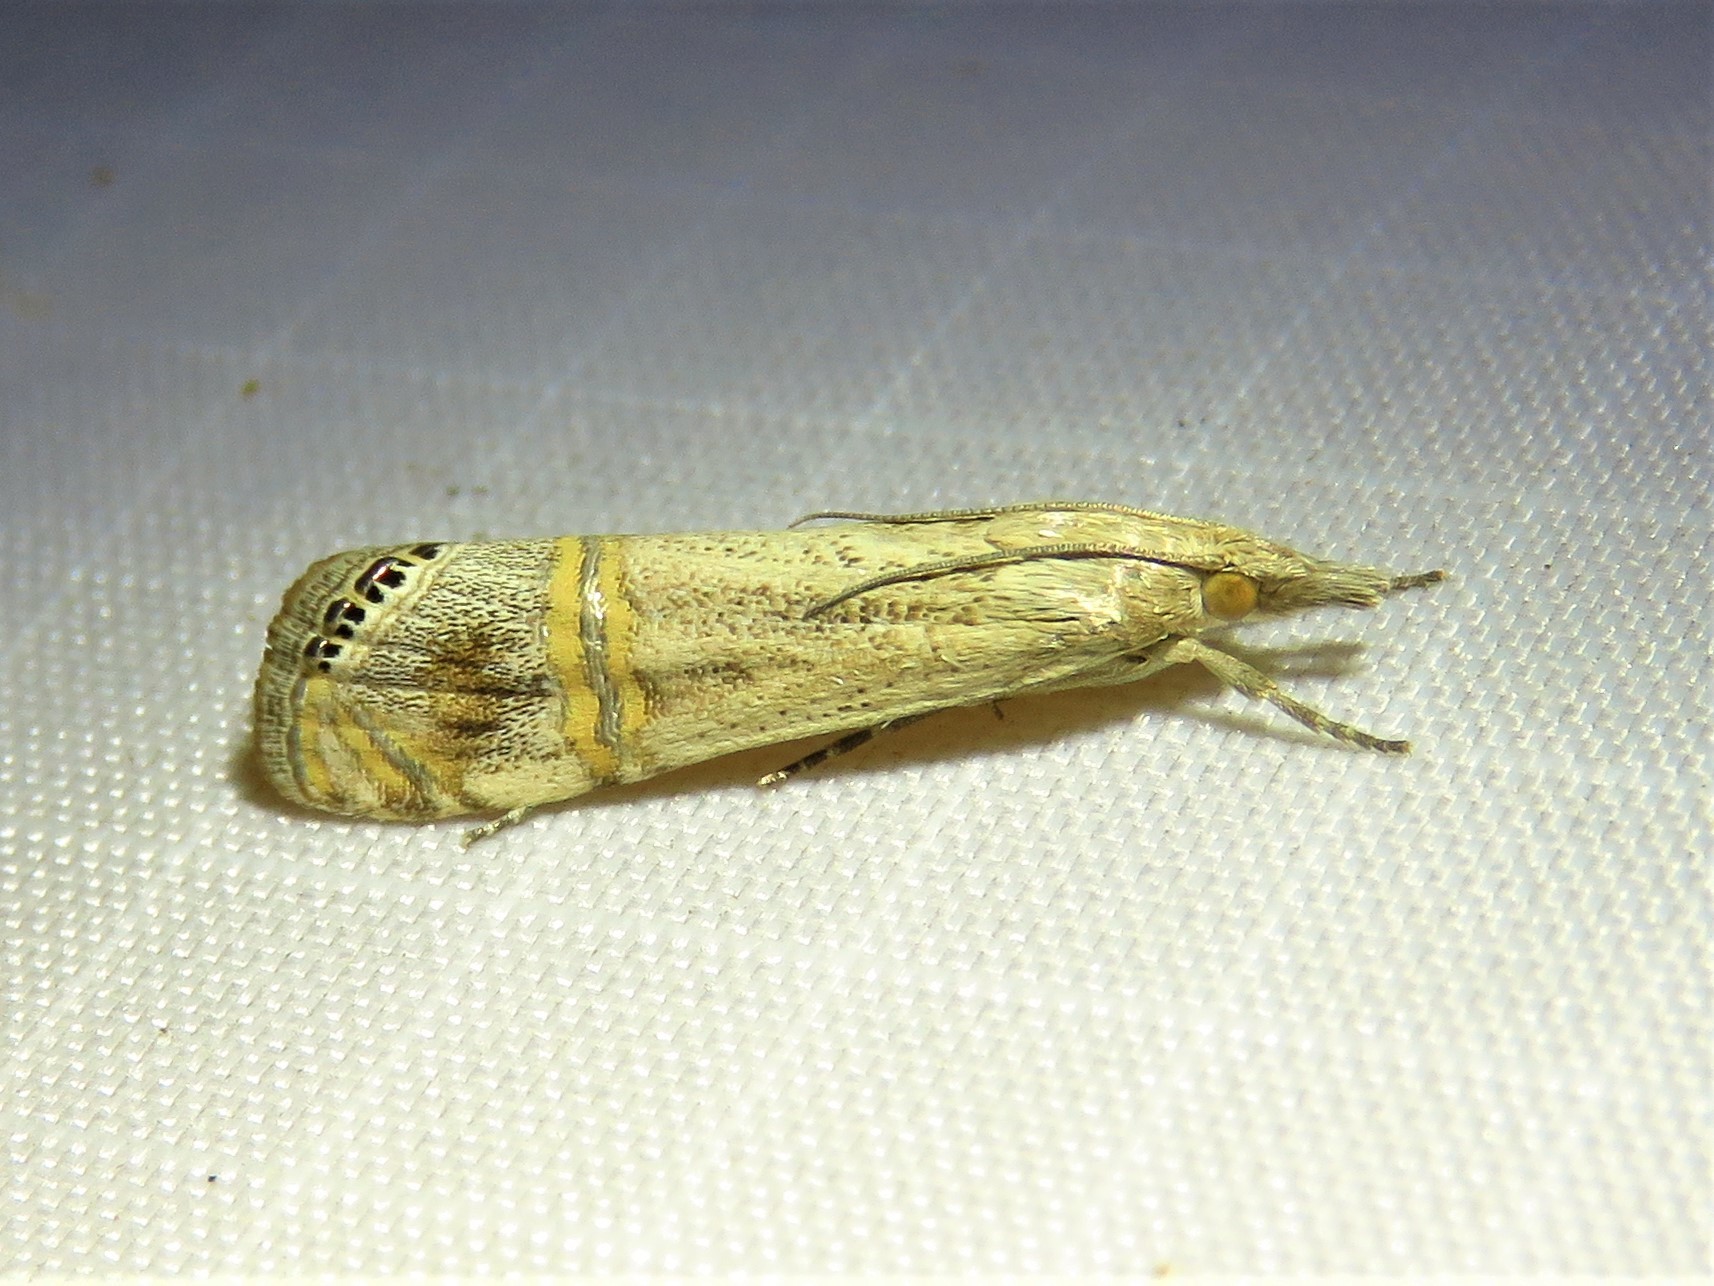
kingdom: Animalia
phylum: Arthropoda
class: Insecta
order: Lepidoptera
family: Crambidae
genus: Euchromius
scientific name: Euchromius ocellea
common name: Necklace veneer moth
